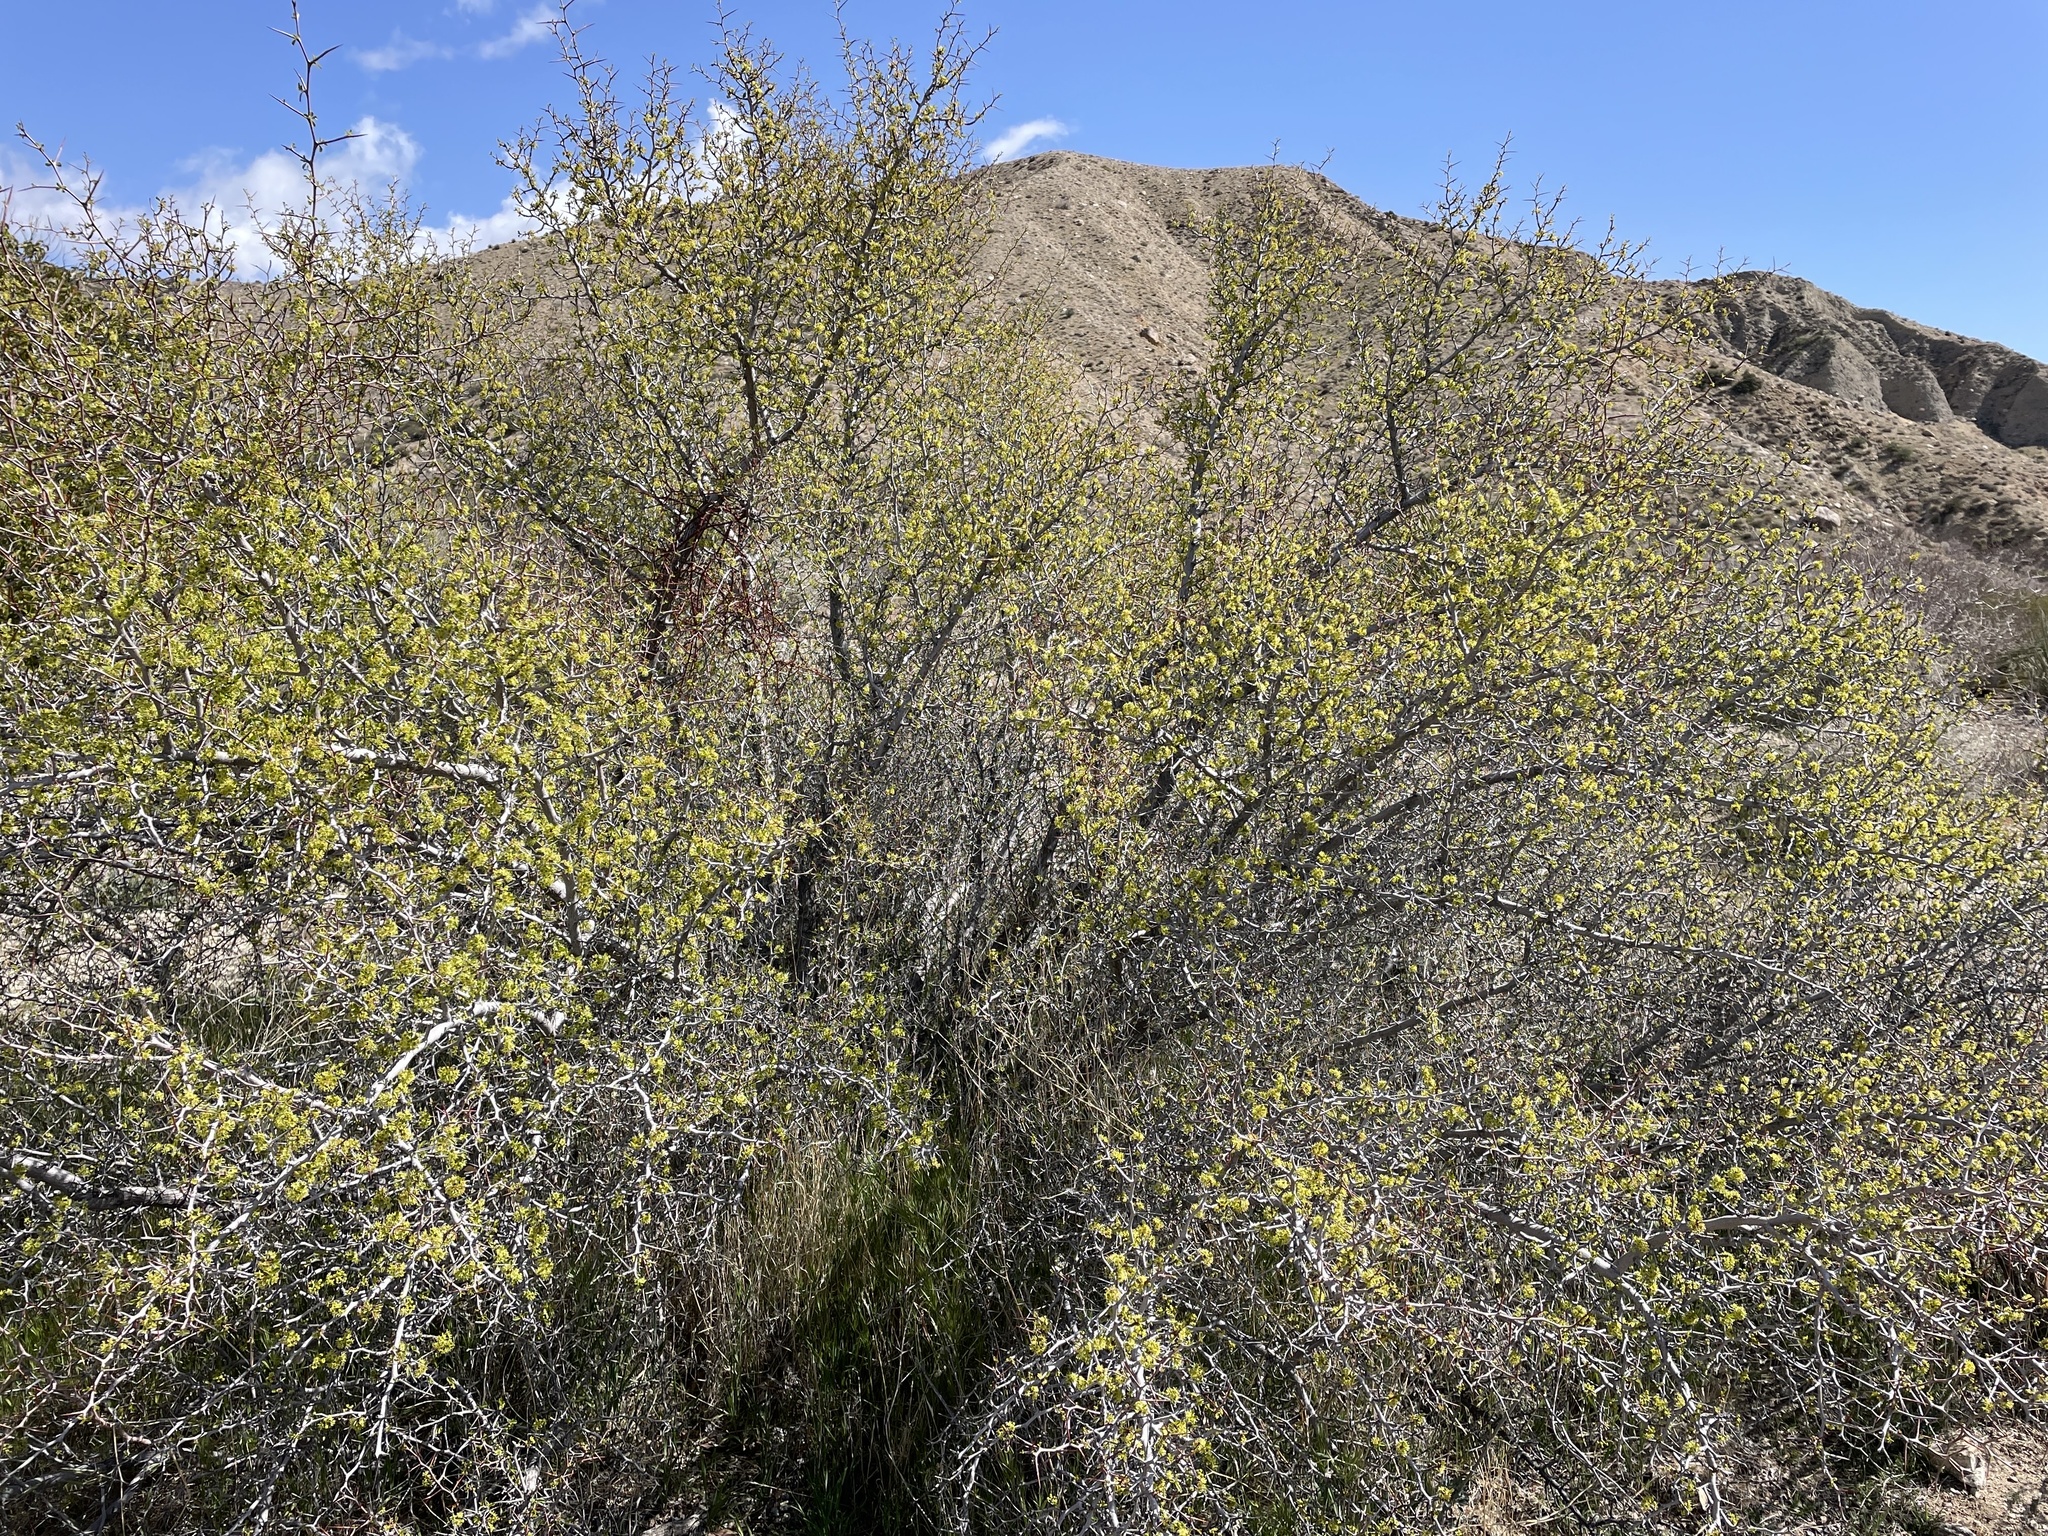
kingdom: Plantae
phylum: Tracheophyta
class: Magnoliopsida
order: Rosales
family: Rhamnaceae
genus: Pseudoziziphus
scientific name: Pseudoziziphus parryi
